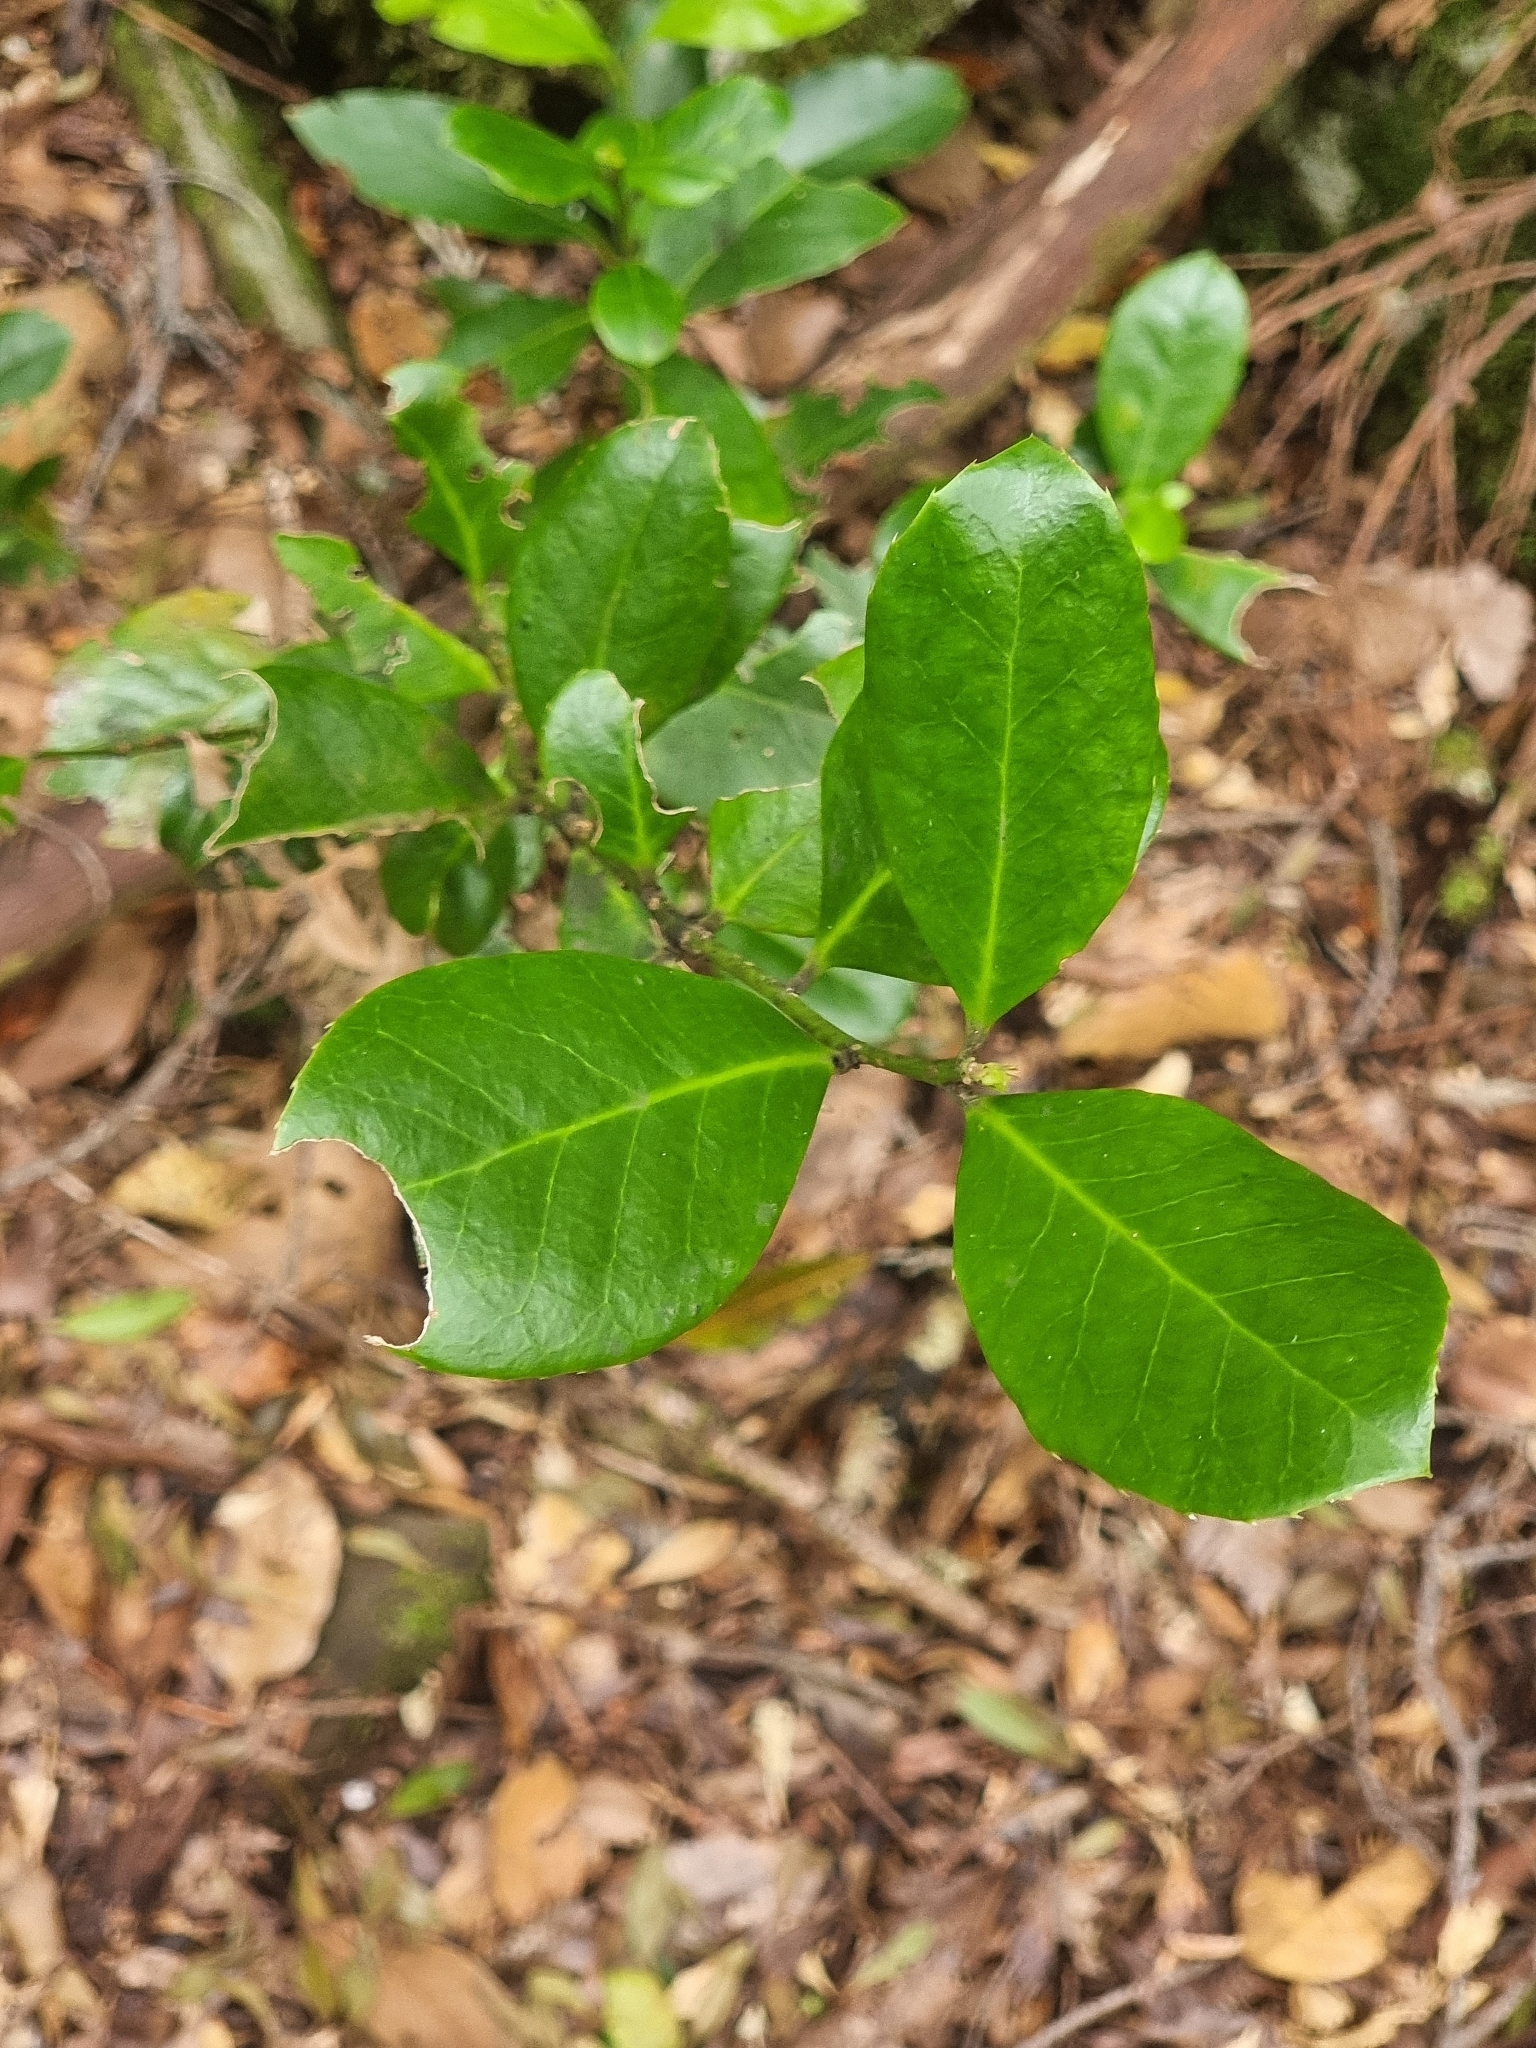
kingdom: Plantae
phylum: Tracheophyta
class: Magnoliopsida
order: Aquifoliales
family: Aquifoliaceae
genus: Ilex
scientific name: Ilex perado
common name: Madeira holly
